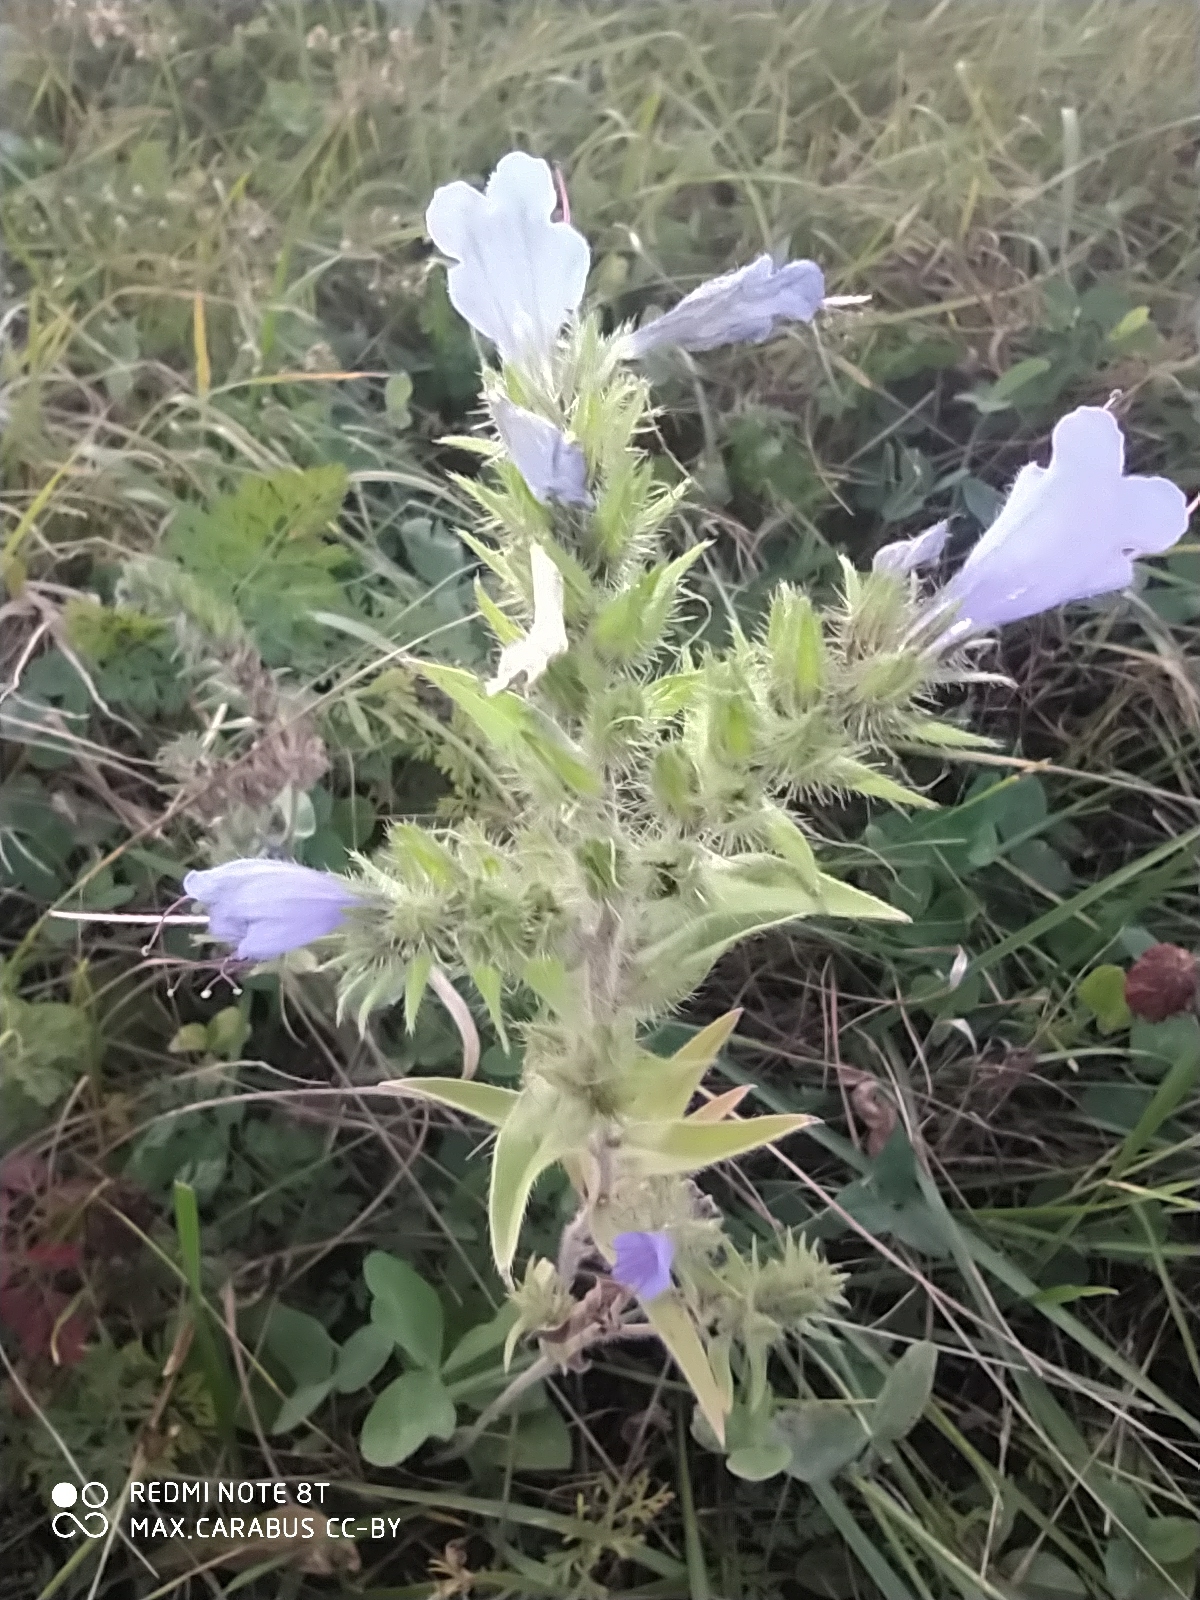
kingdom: Plantae
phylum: Tracheophyta
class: Magnoliopsida
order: Boraginales
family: Boraginaceae
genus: Echium
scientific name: Echium vulgare
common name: Common viper's bugloss
